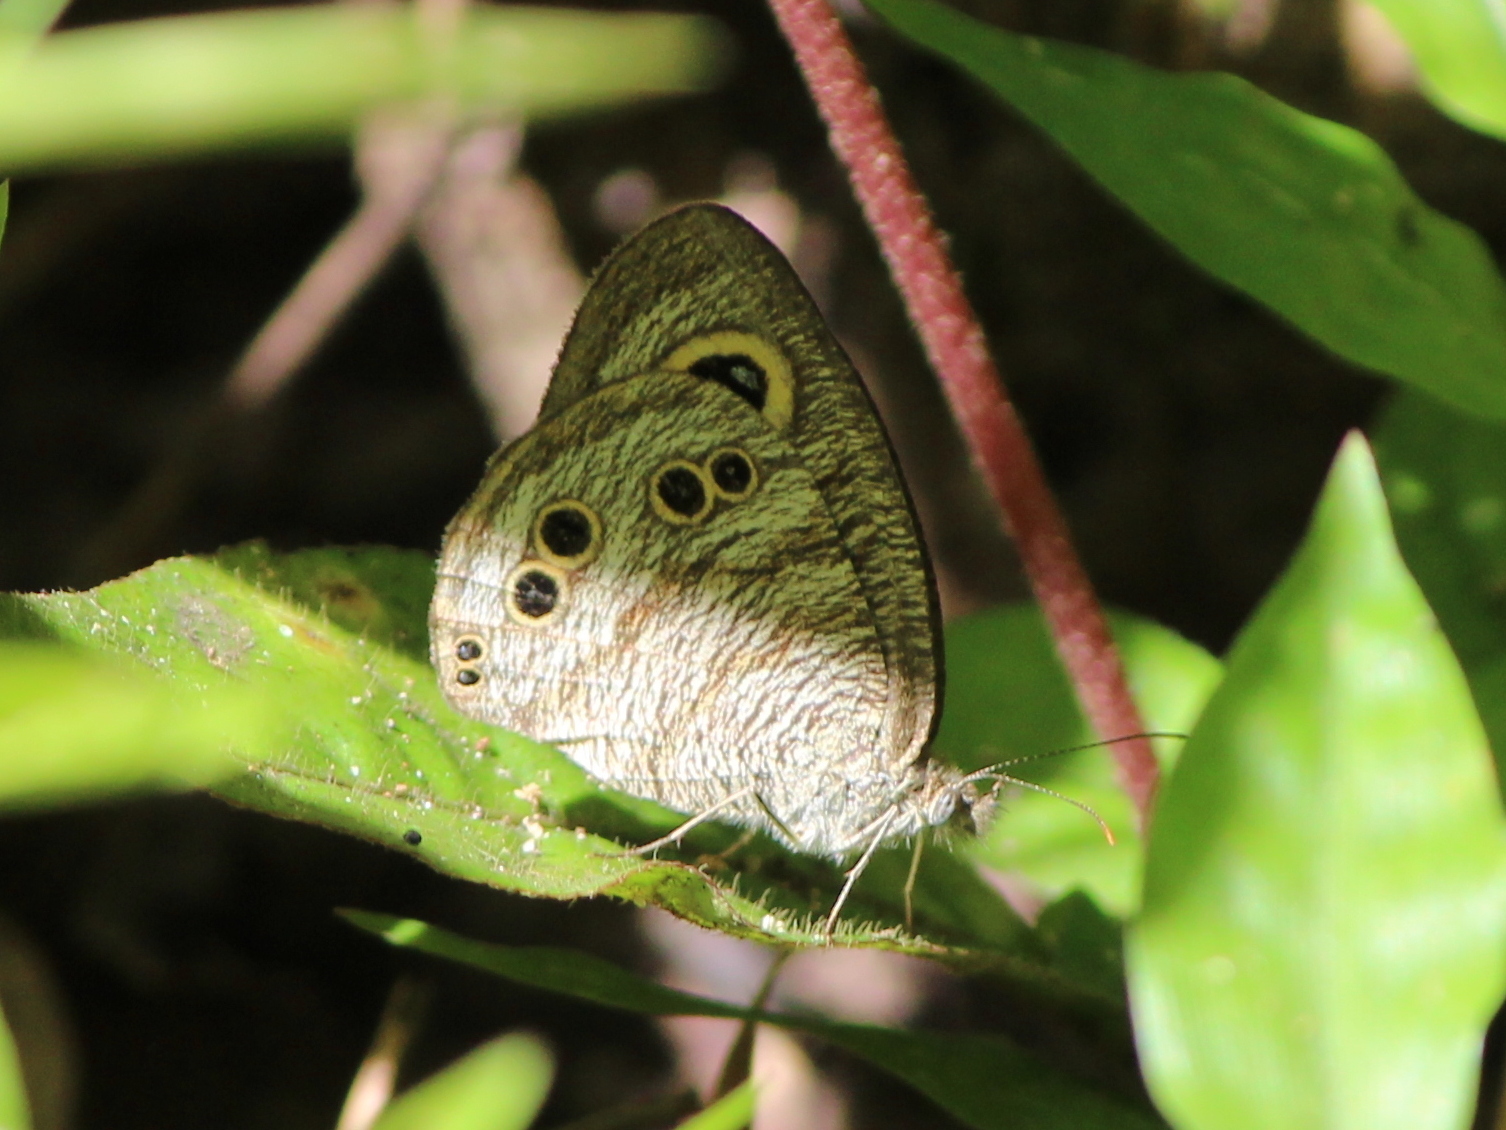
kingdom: Animalia
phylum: Arthropoda
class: Insecta
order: Lepidoptera
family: Nymphalidae
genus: Ypthima
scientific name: Ypthima baldus
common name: Common five-ring
